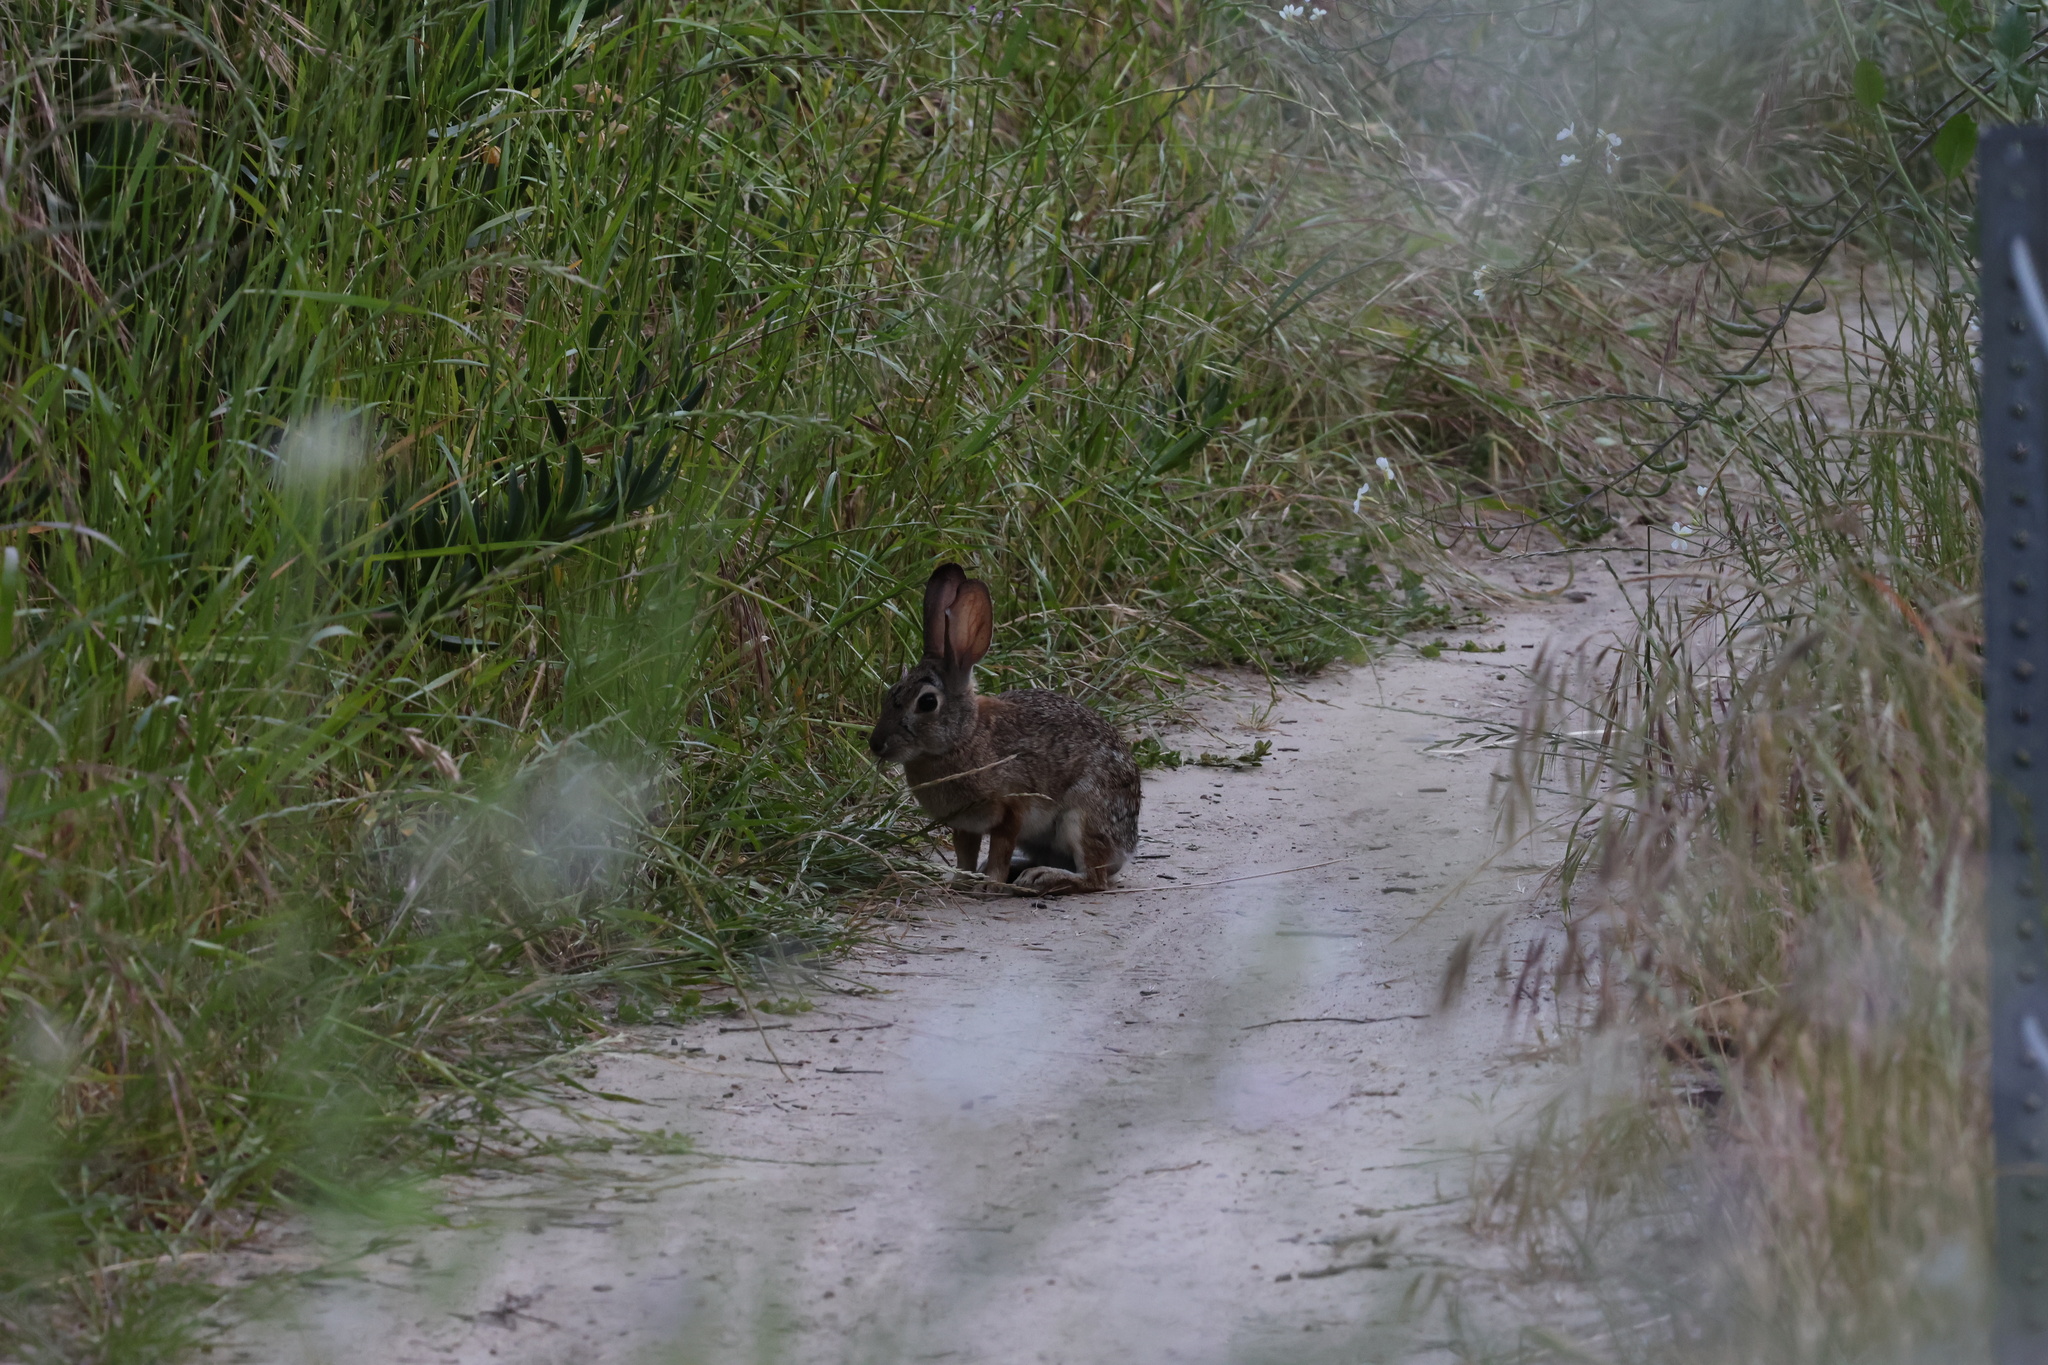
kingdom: Animalia
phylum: Chordata
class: Mammalia
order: Lagomorpha
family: Leporidae
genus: Sylvilagus
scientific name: Sylvilagus audubonii
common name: Desert cottontail
